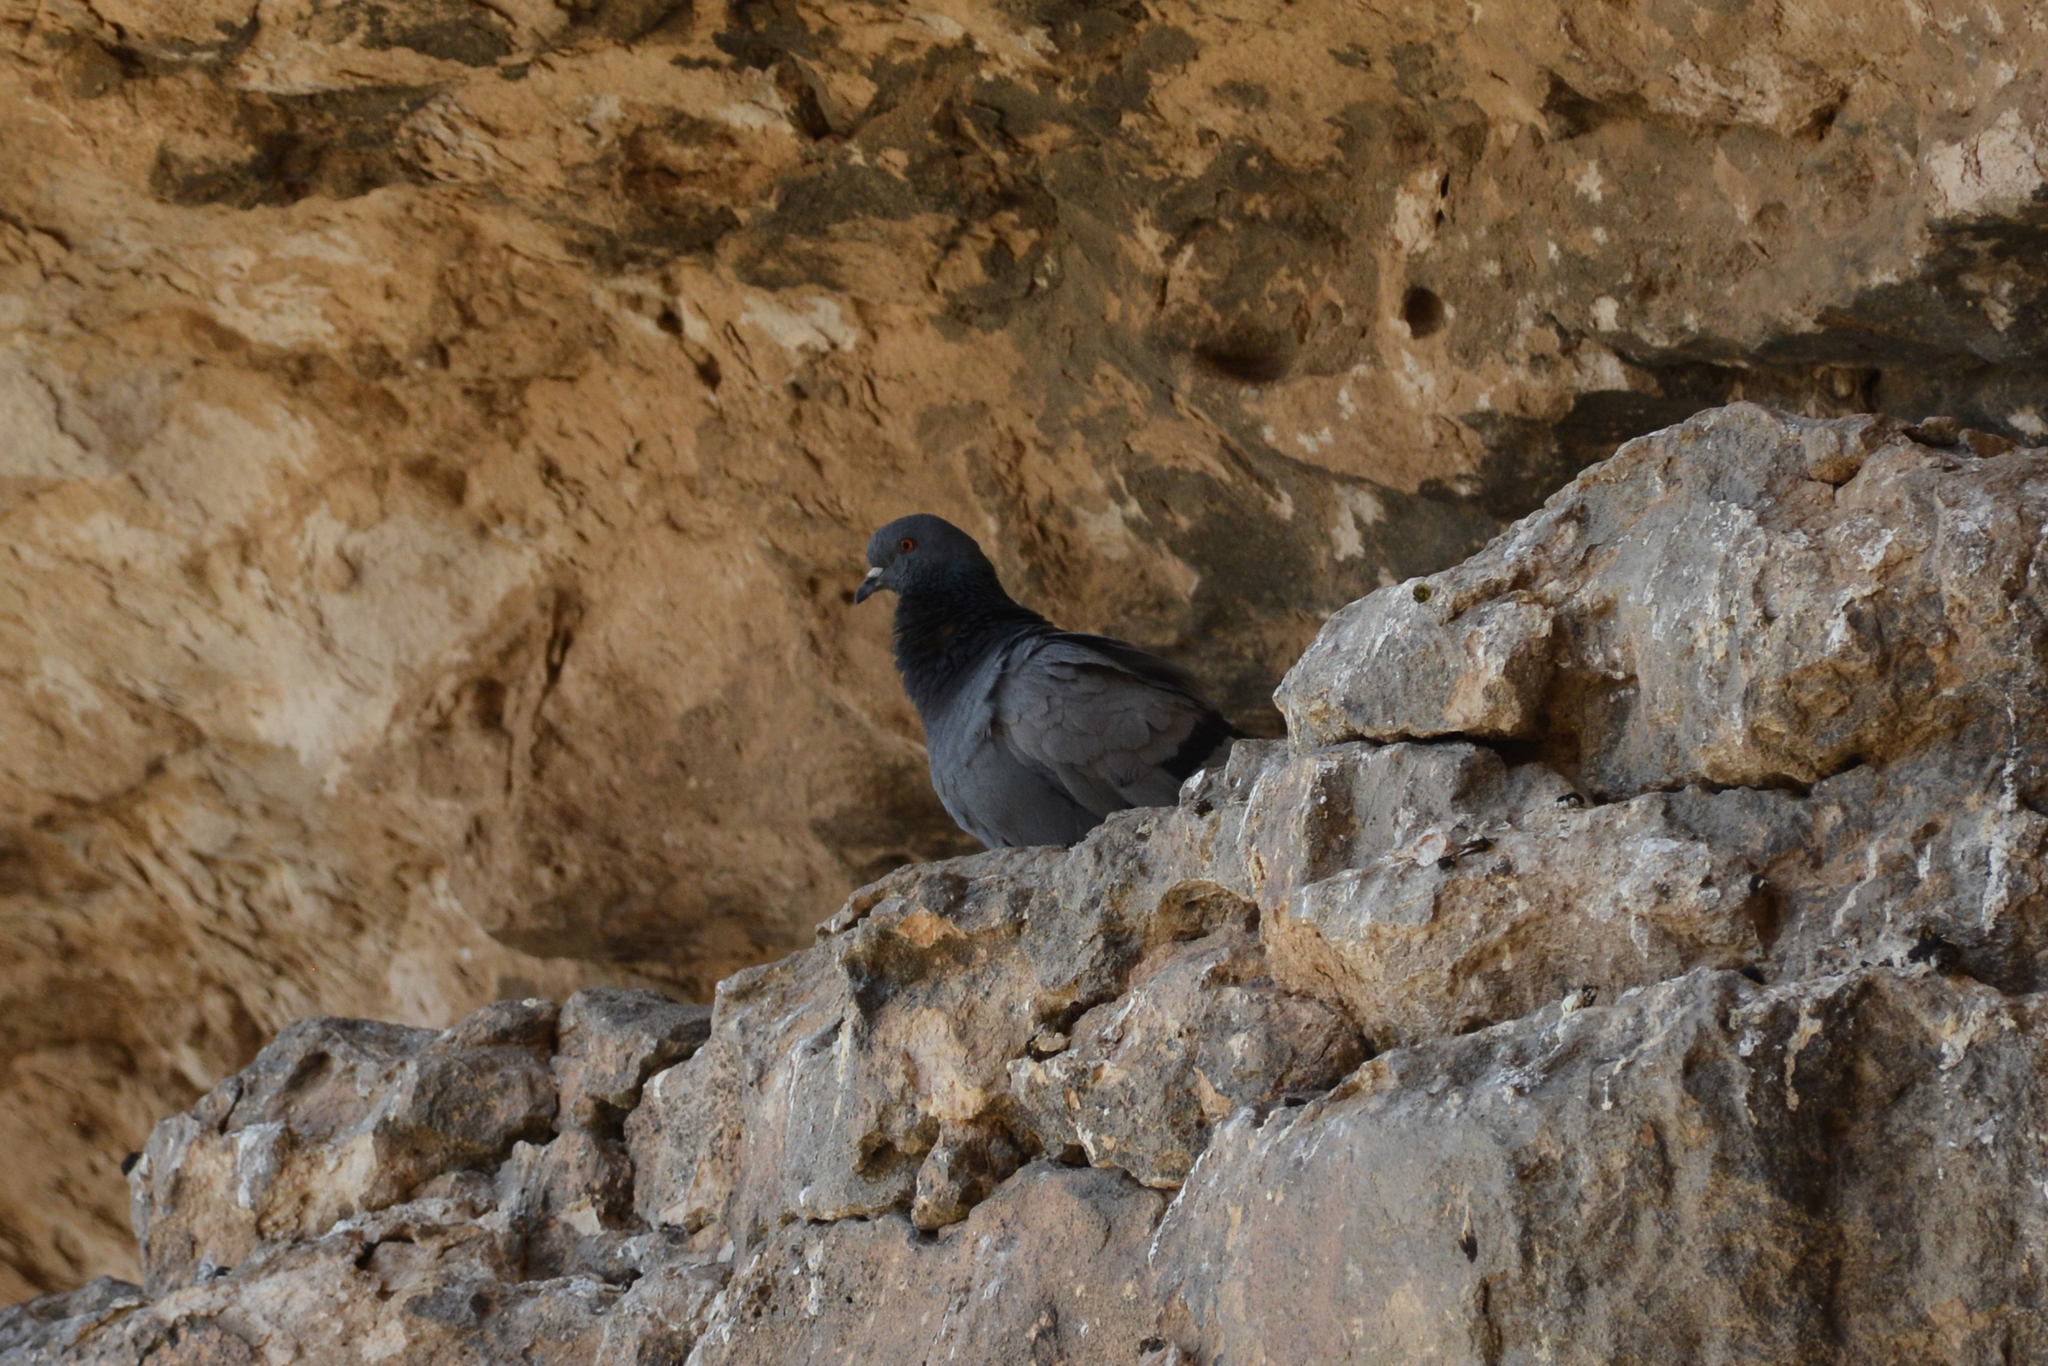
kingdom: Animalia
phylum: Chordata
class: Aves
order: Columbiformes
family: Columbidae
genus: Columba
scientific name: Columba livia
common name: Rock pigeon
